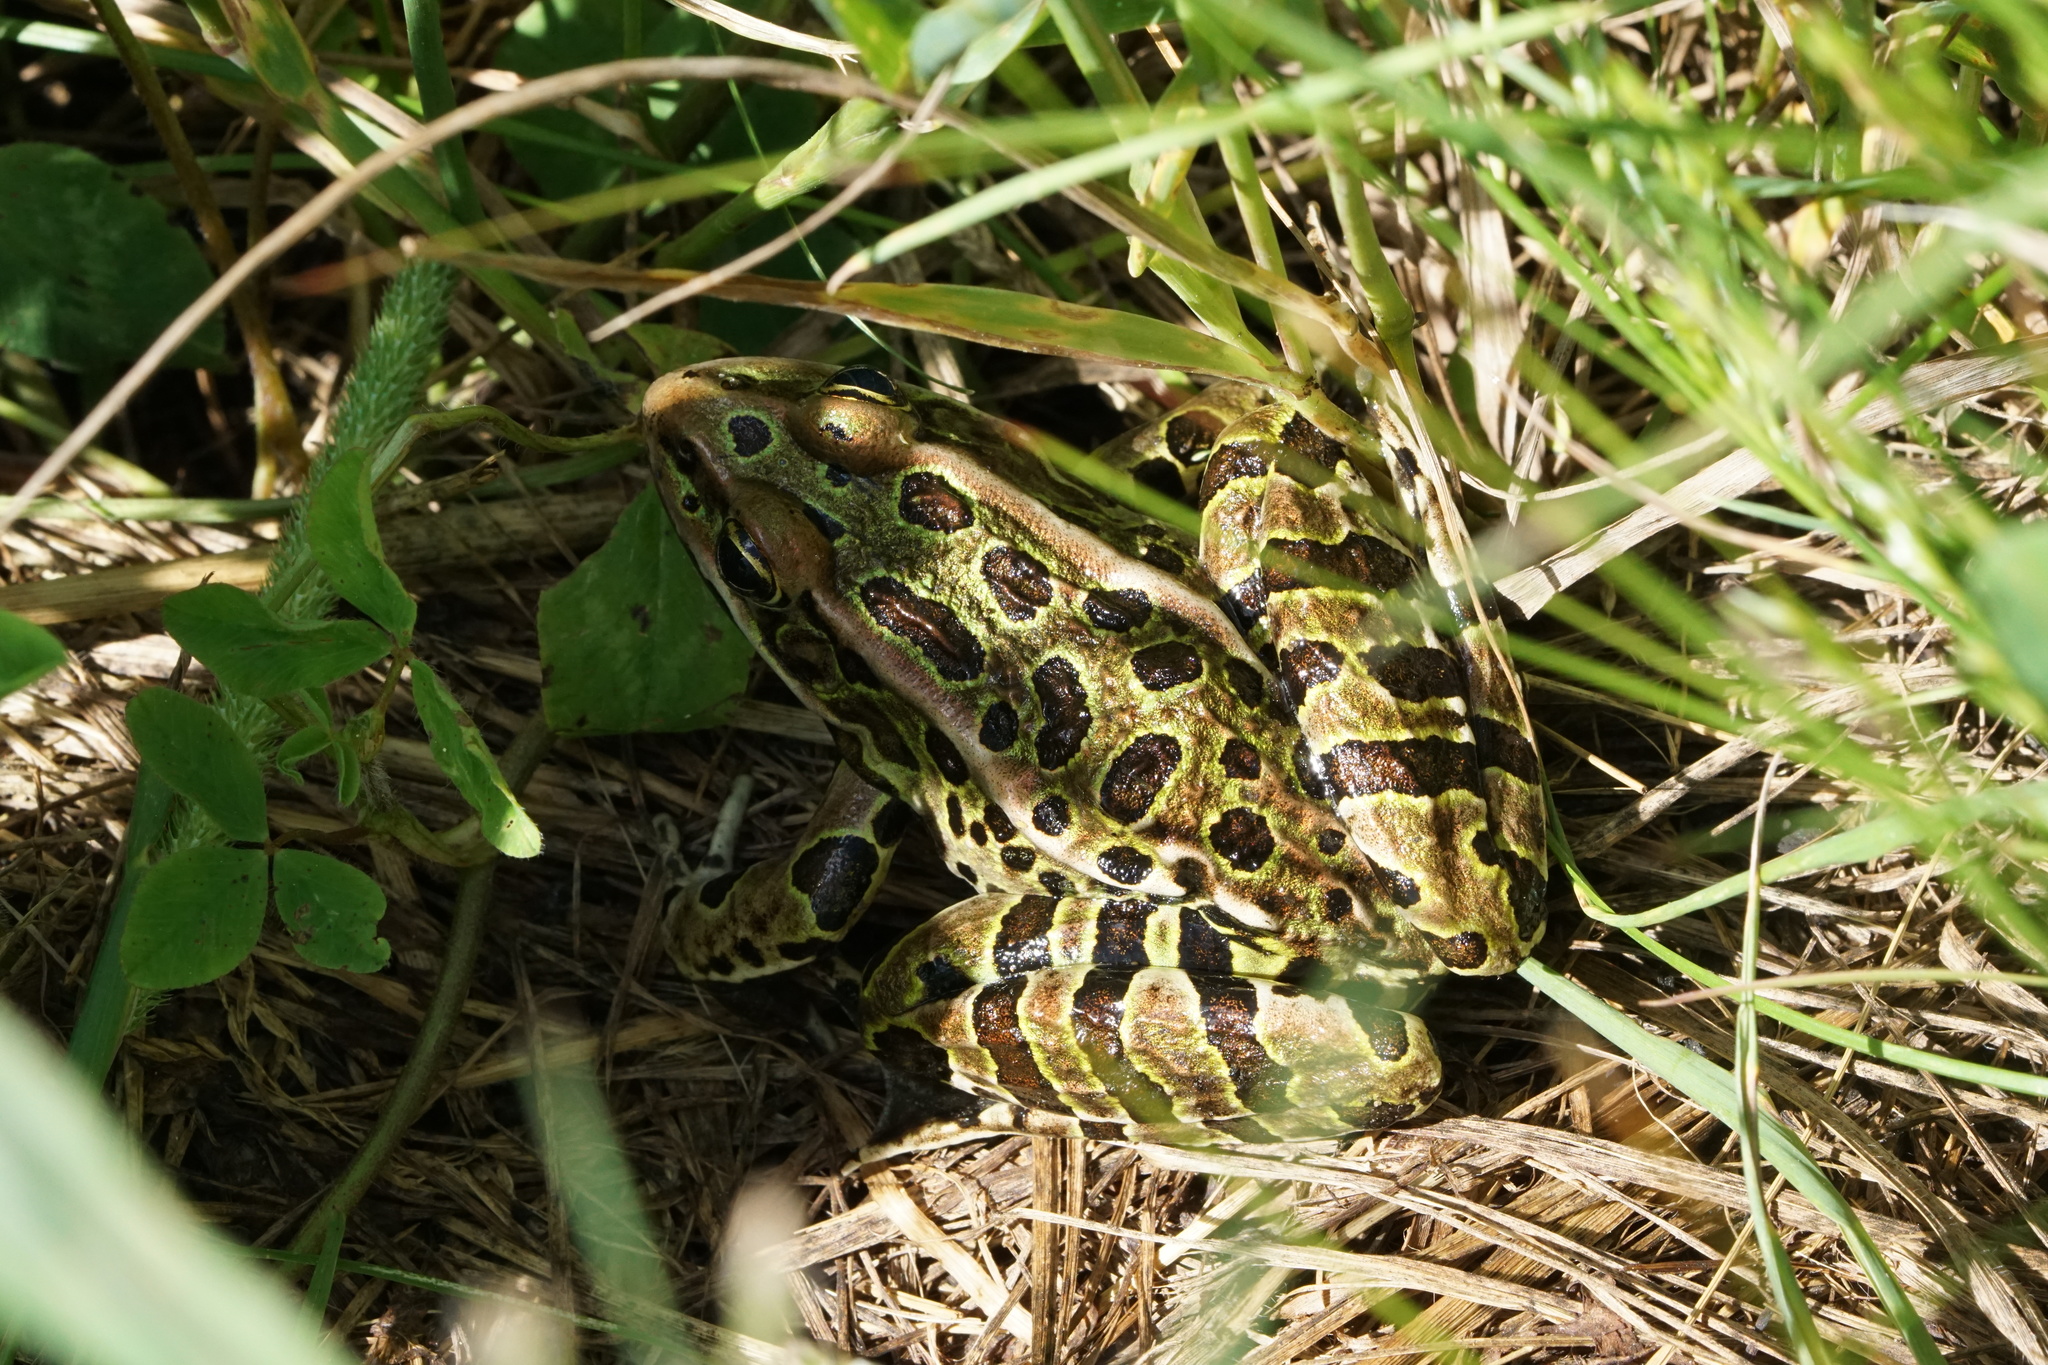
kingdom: Animalia
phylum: Chordata
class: Amphibia
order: Anura
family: Ranidae
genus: Lithobates
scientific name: Lithobates pipiens
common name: Northern leopard frog
